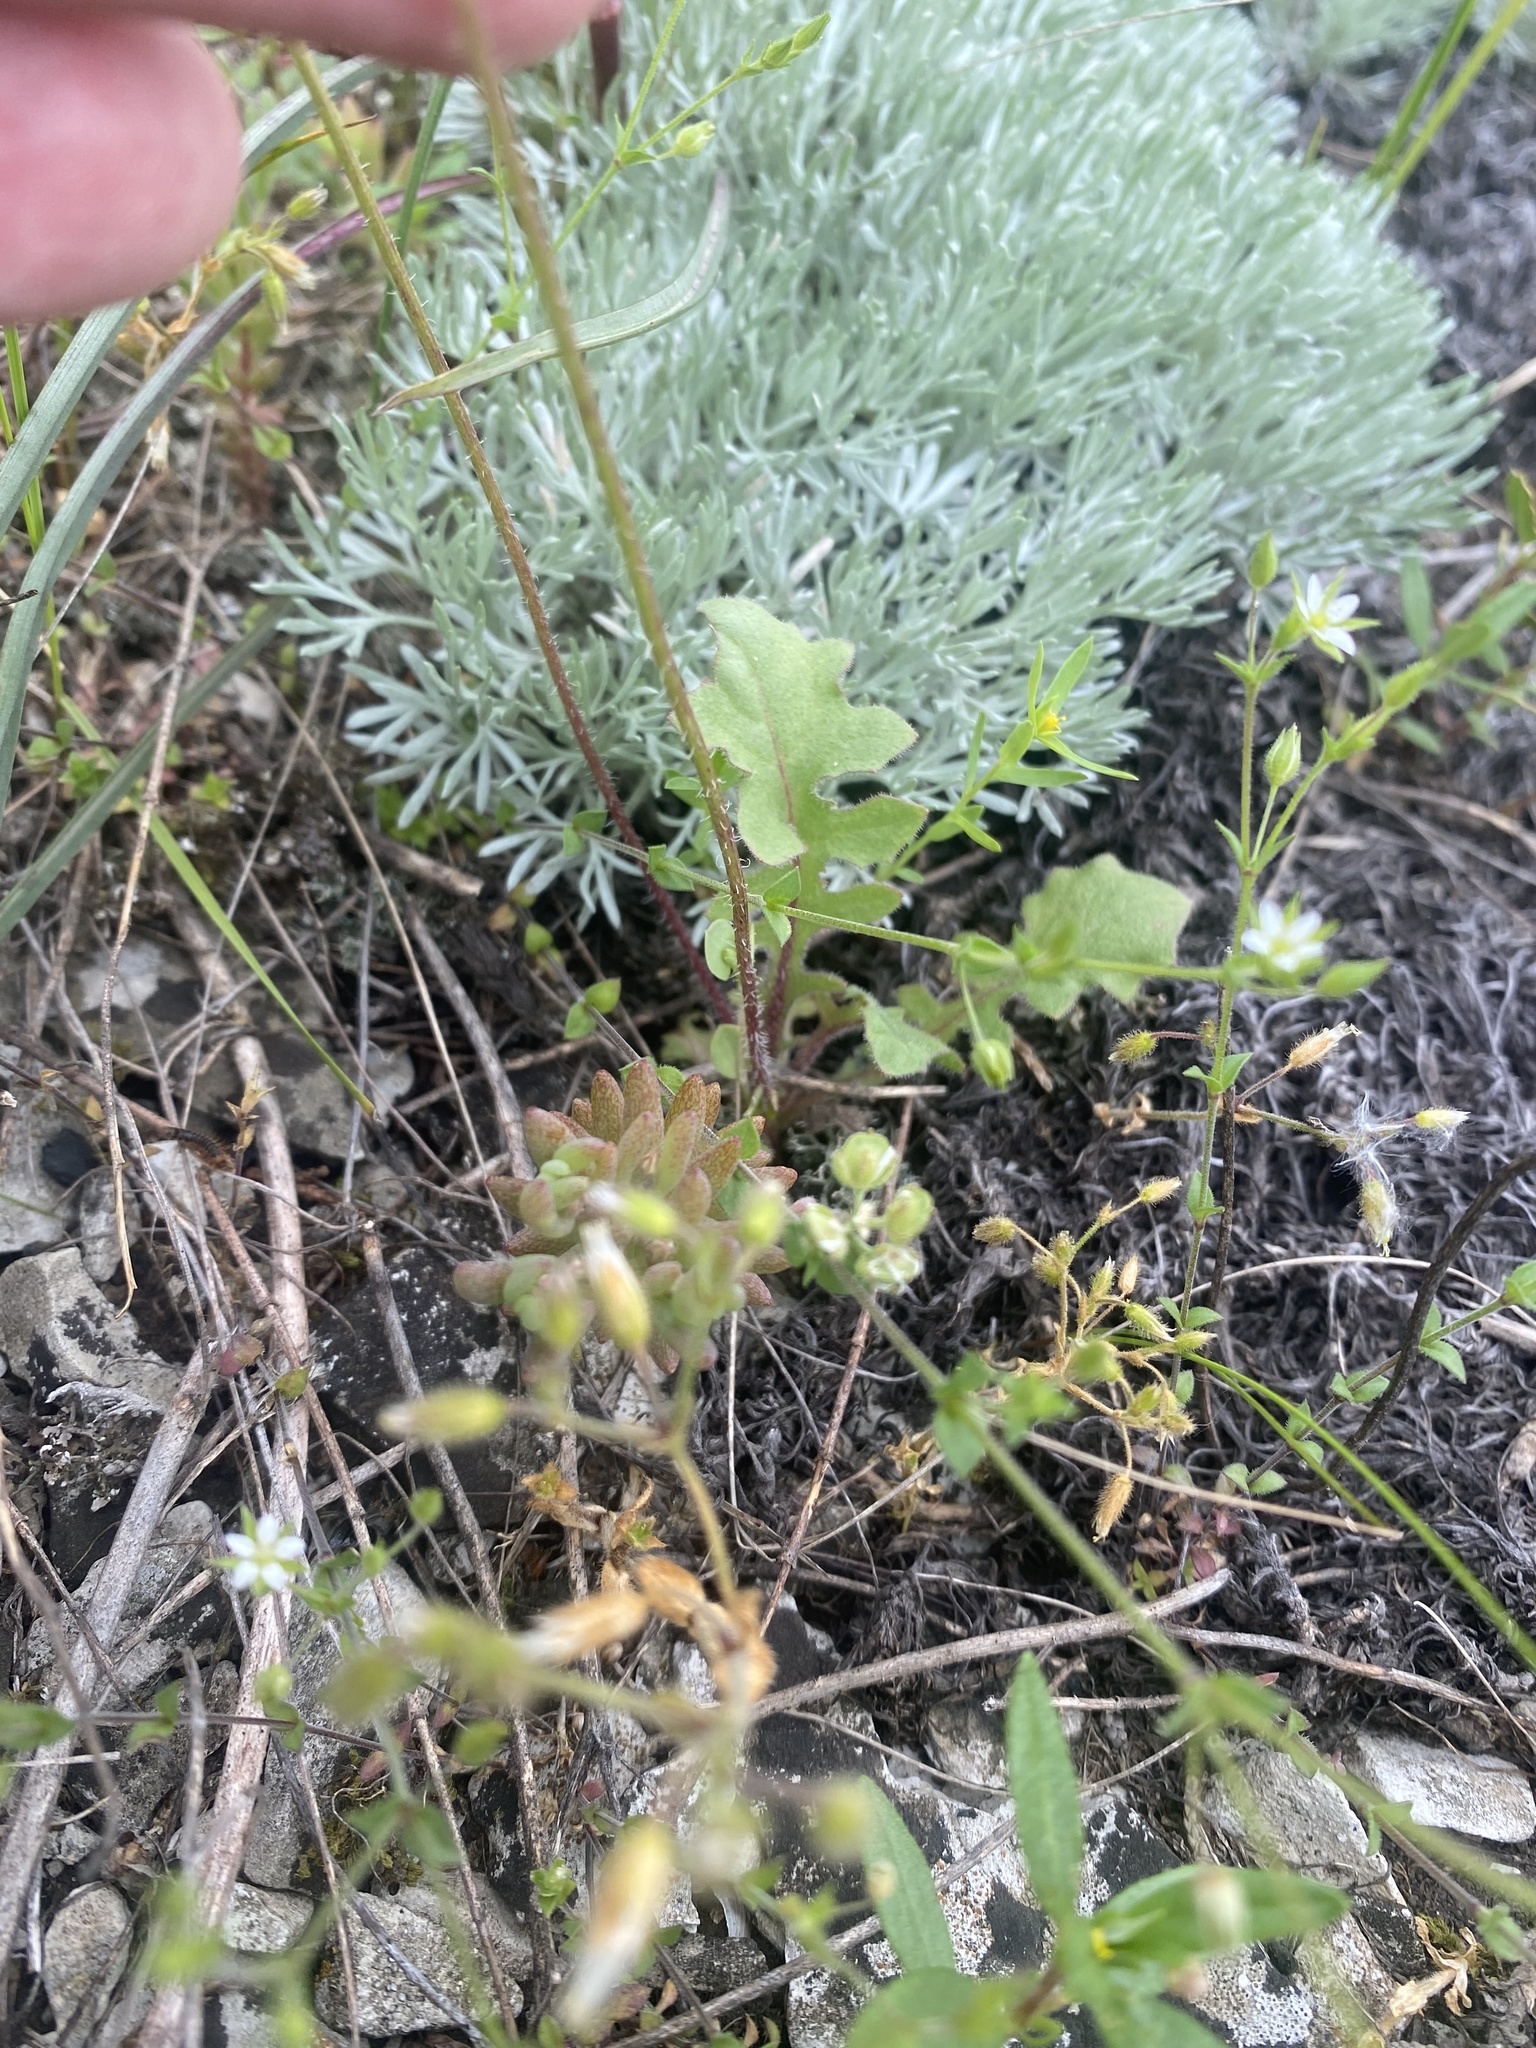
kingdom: Plantae
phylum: Tracheophyta
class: Magnoliopsida
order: Asterales
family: Asteraceae
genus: Crepis
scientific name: Crepis sancta
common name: Hawk's-beard
